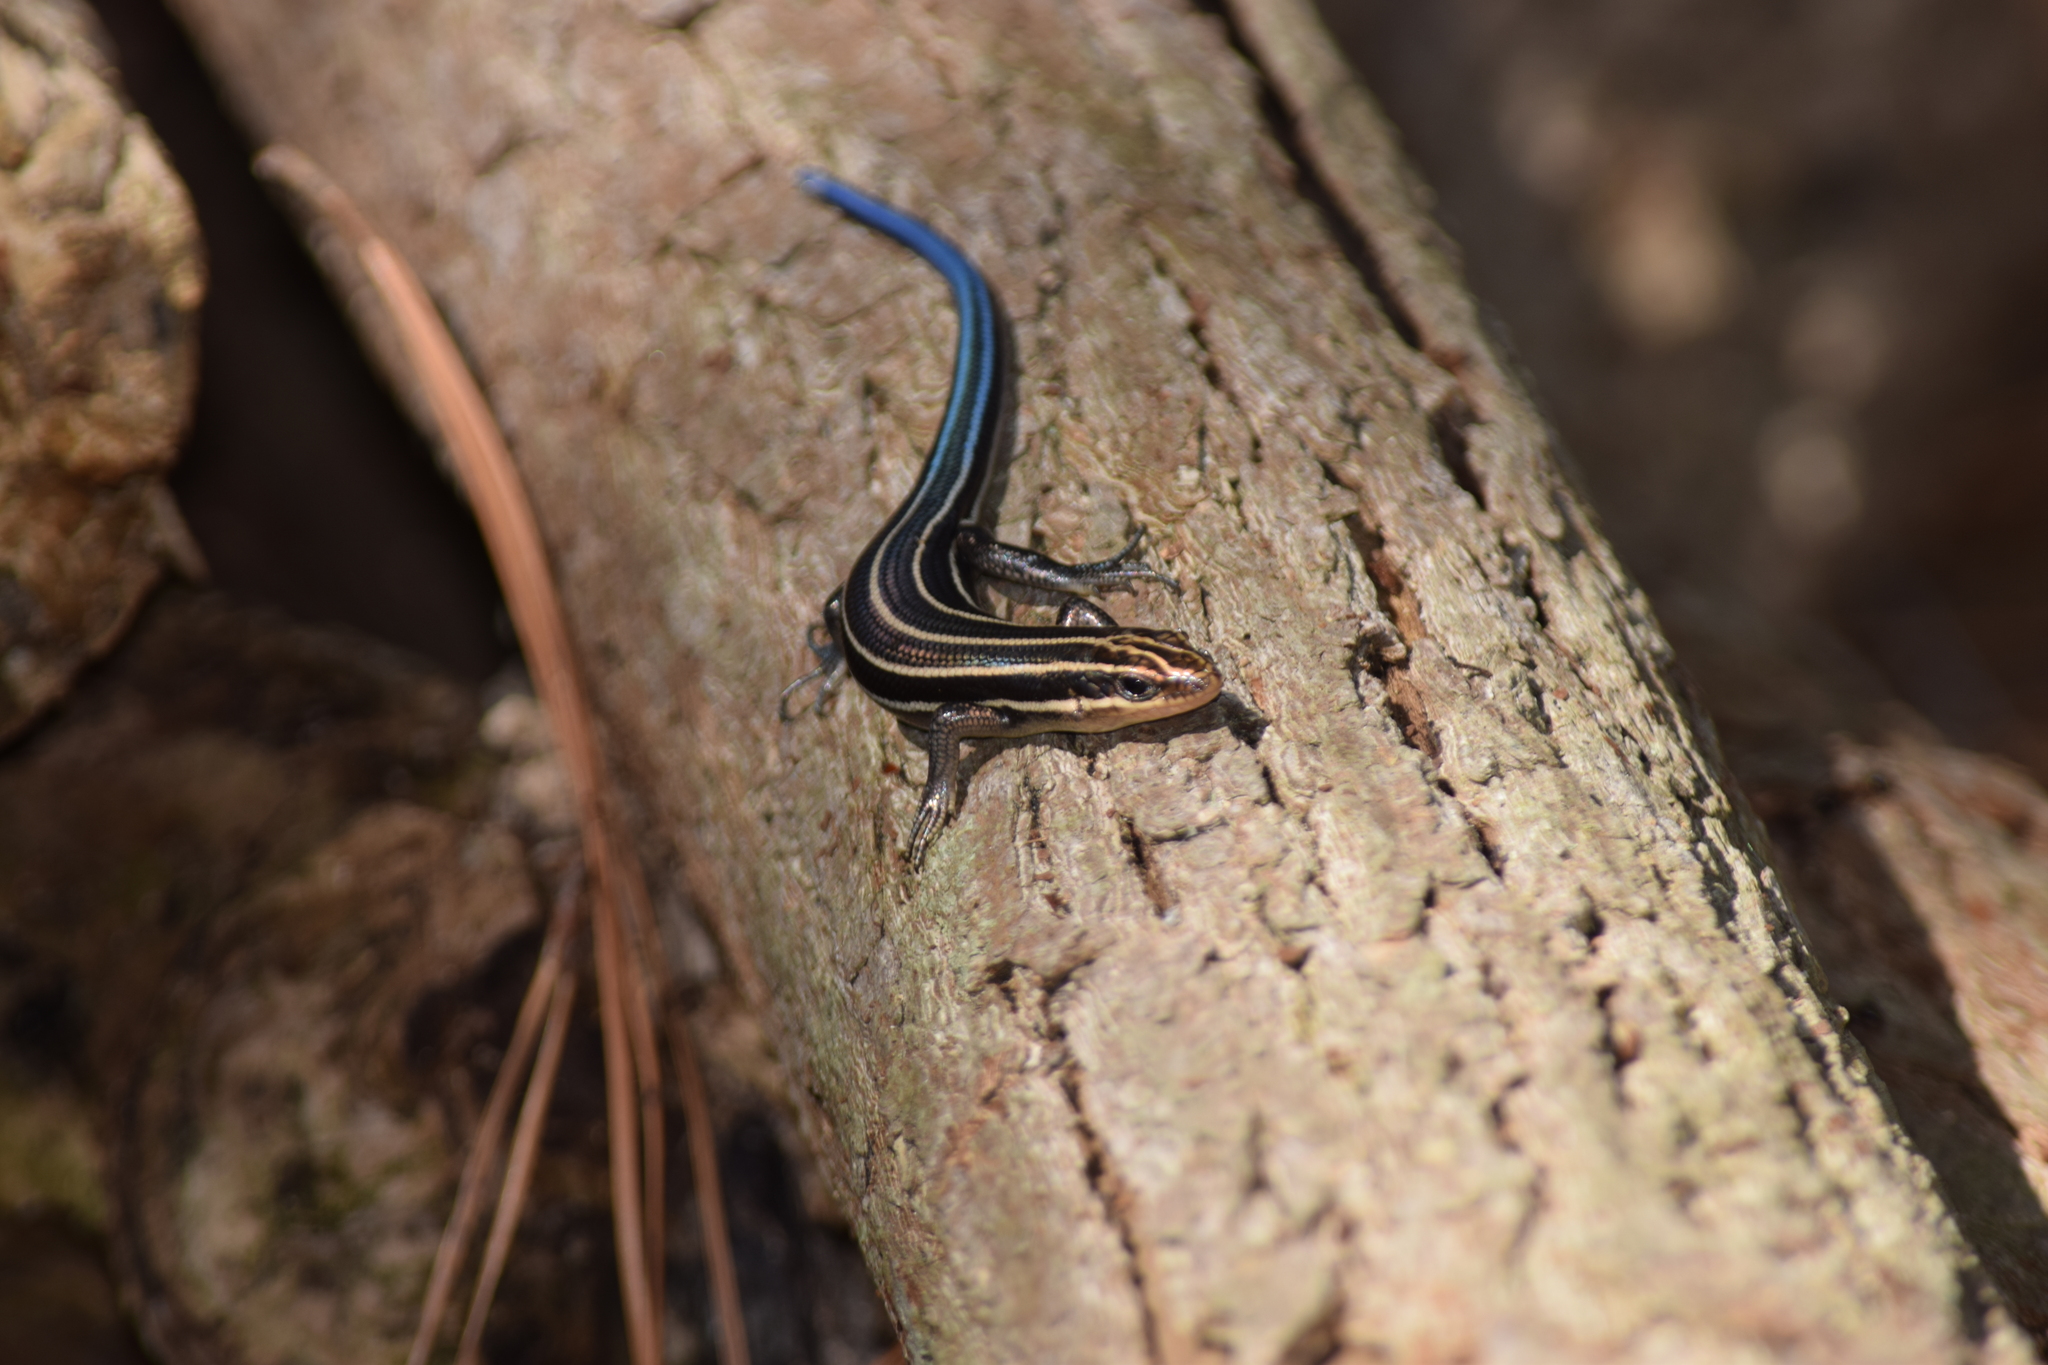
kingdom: Animalia
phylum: Chordata
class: Squamata
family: Scincidae
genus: Plestiodon
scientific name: Plestiodon fasciatus
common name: Five-lined skink
